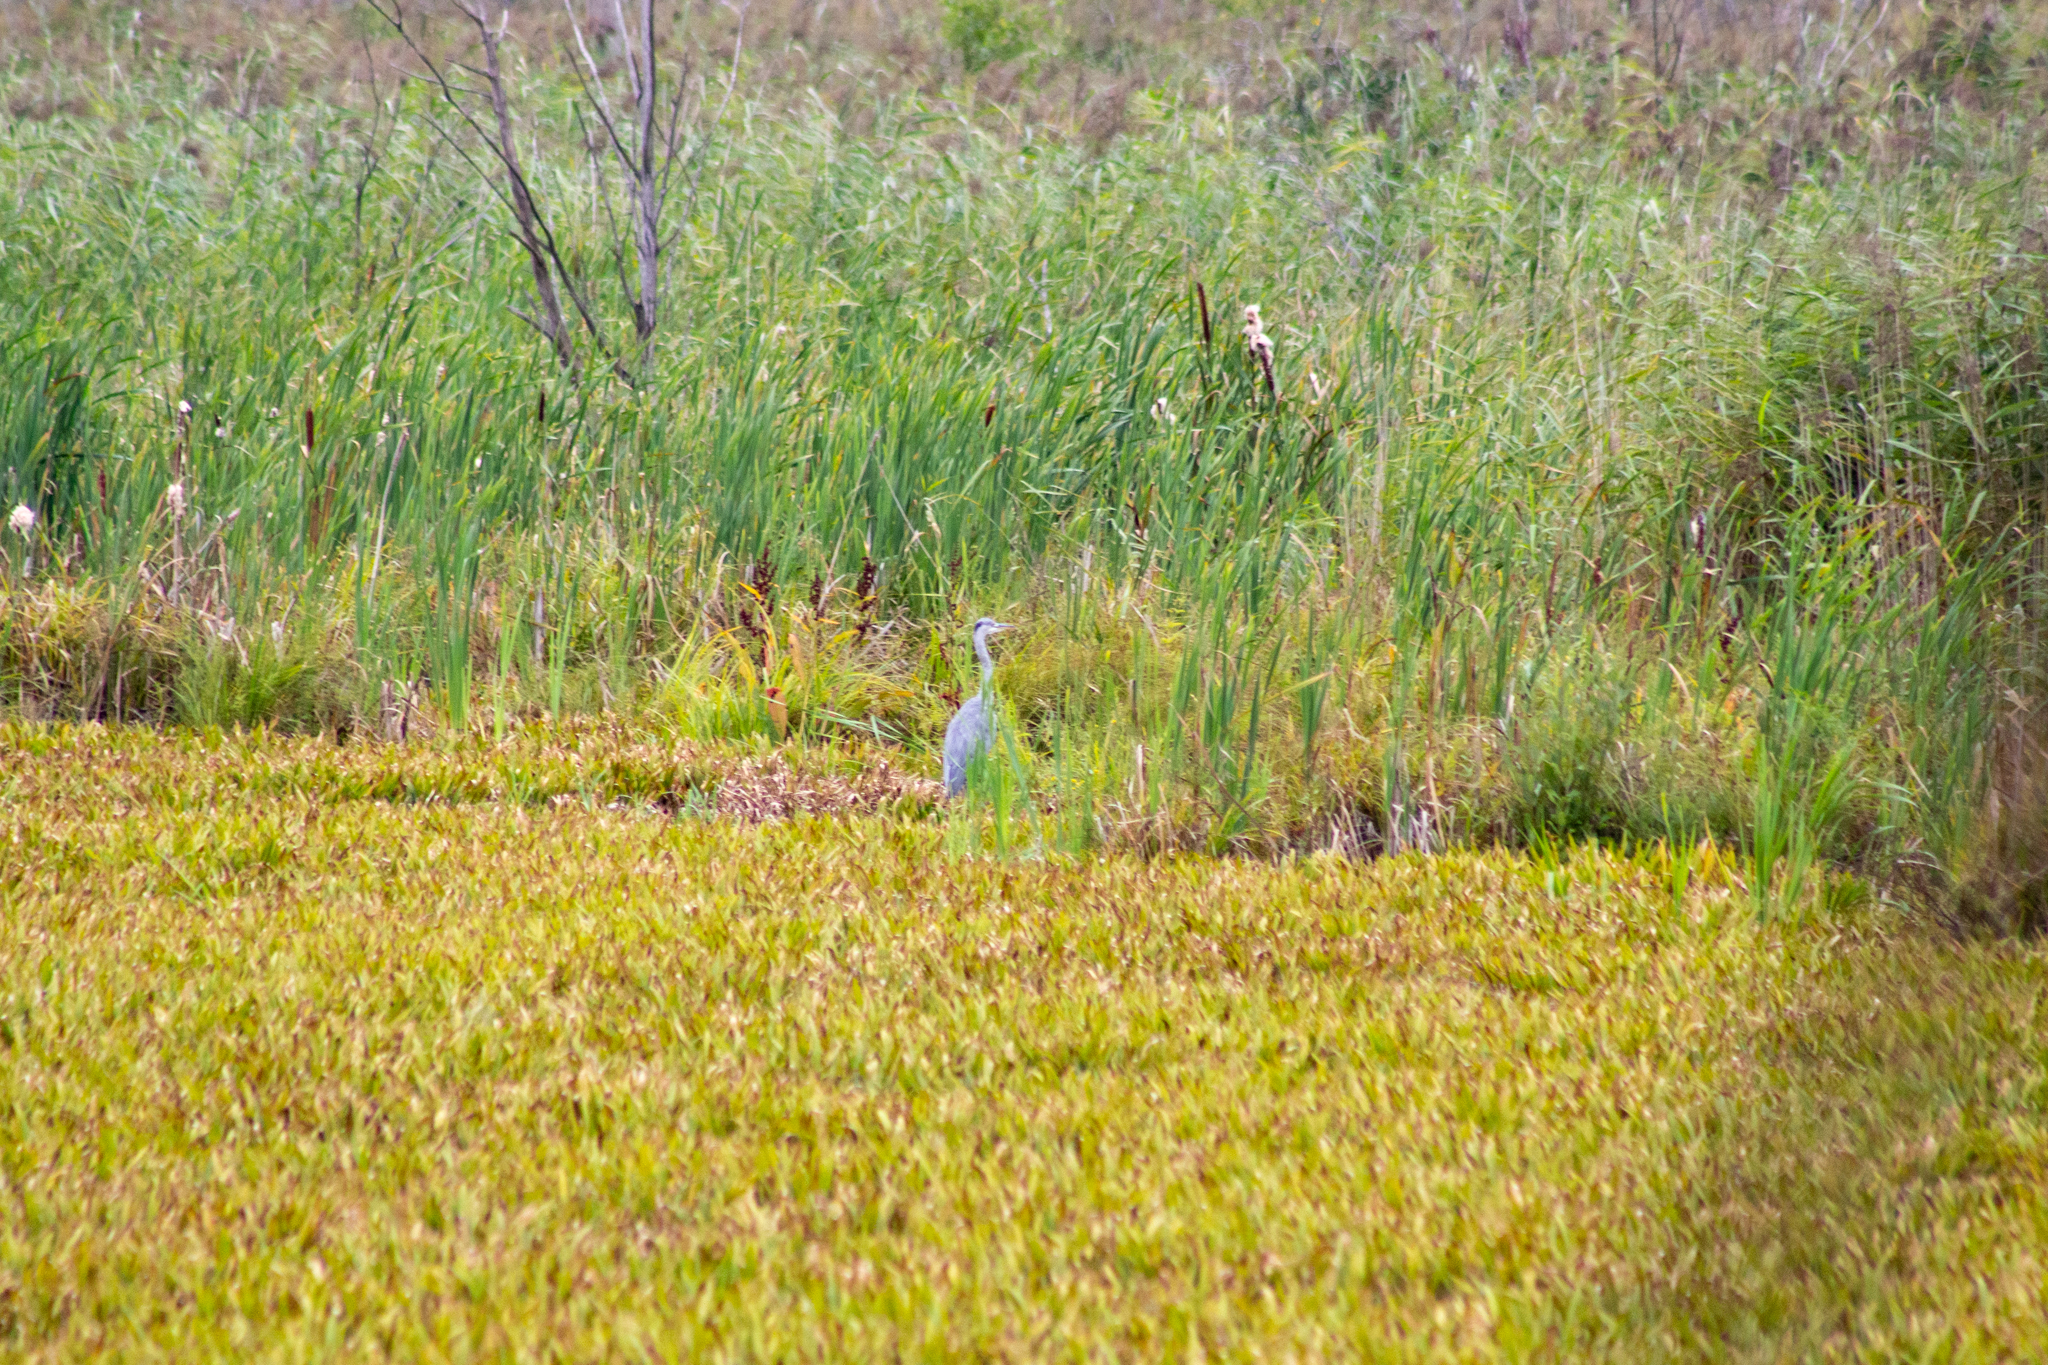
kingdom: Animalia
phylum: Chordata
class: Aves
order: Pelecaniformes
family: Ardeidae
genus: Ardea
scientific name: Ardea cinerea
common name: Grey heron
